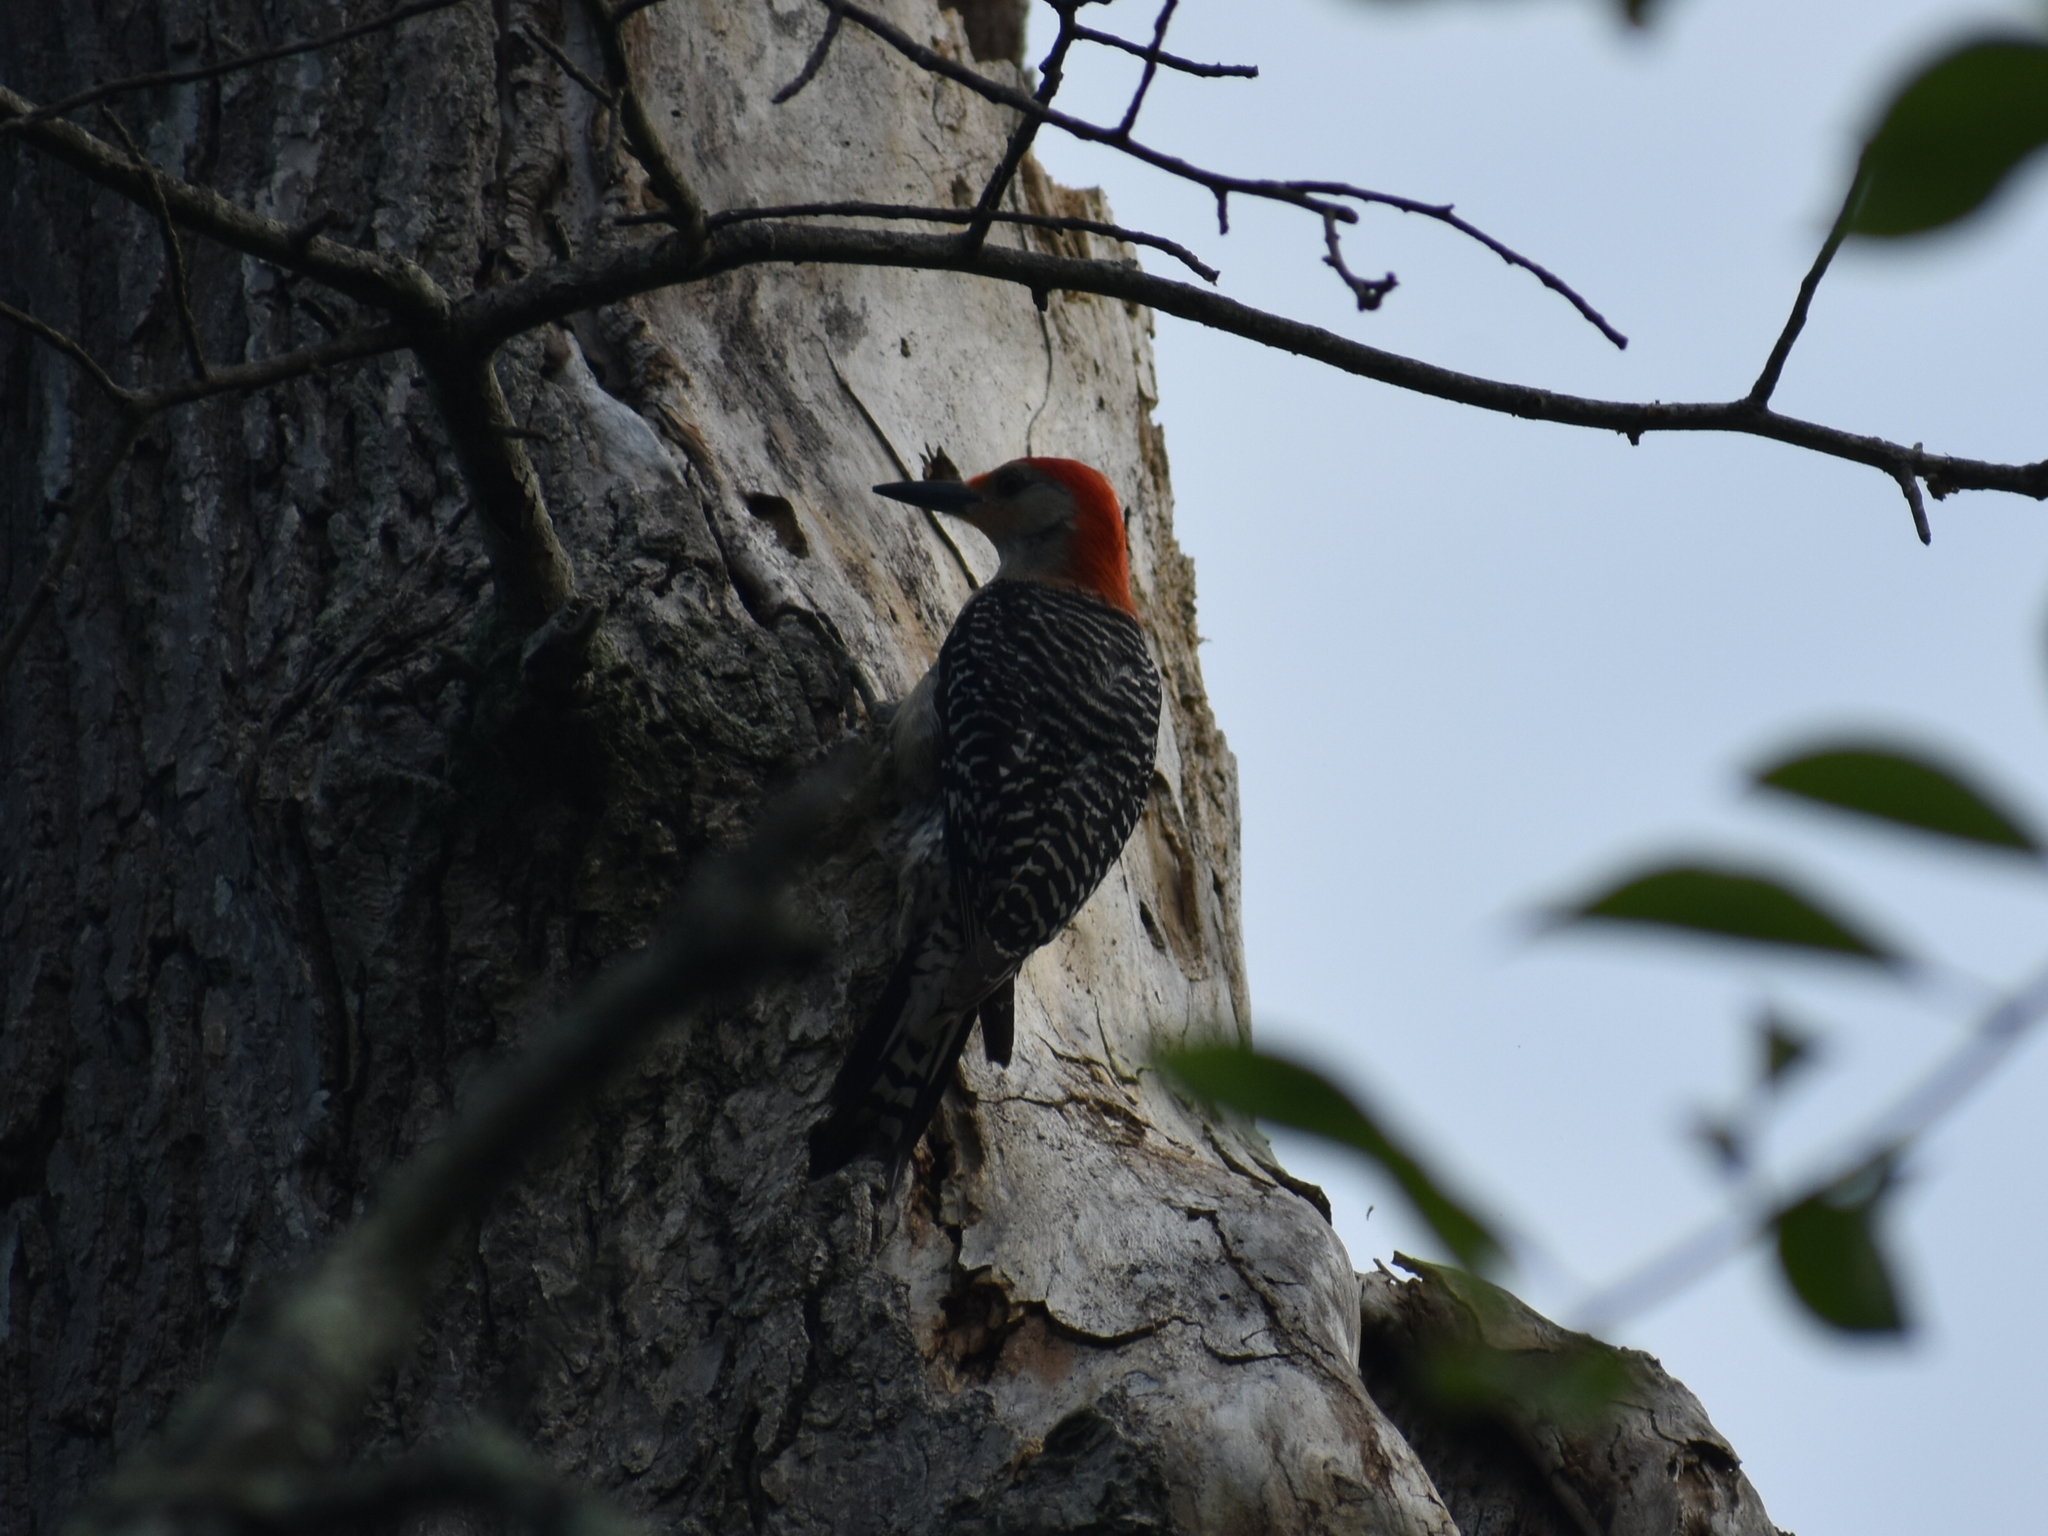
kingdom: Animalia
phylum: Chordata
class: Aves
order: Piciformes
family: Picidae
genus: Melanerpes
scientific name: Melanerpes carolinus
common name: Red-bellied woodpecker
